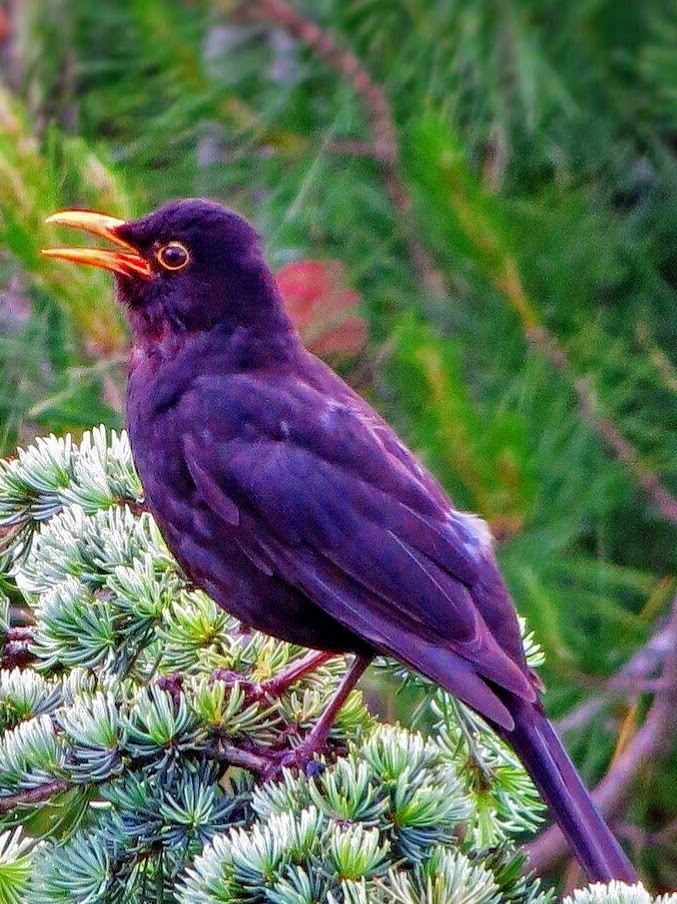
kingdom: Animalia
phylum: Chordata
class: Aves
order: Passeriformes
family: Turdidae
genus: Turdus
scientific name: Turdus merula
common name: Common blackbird
